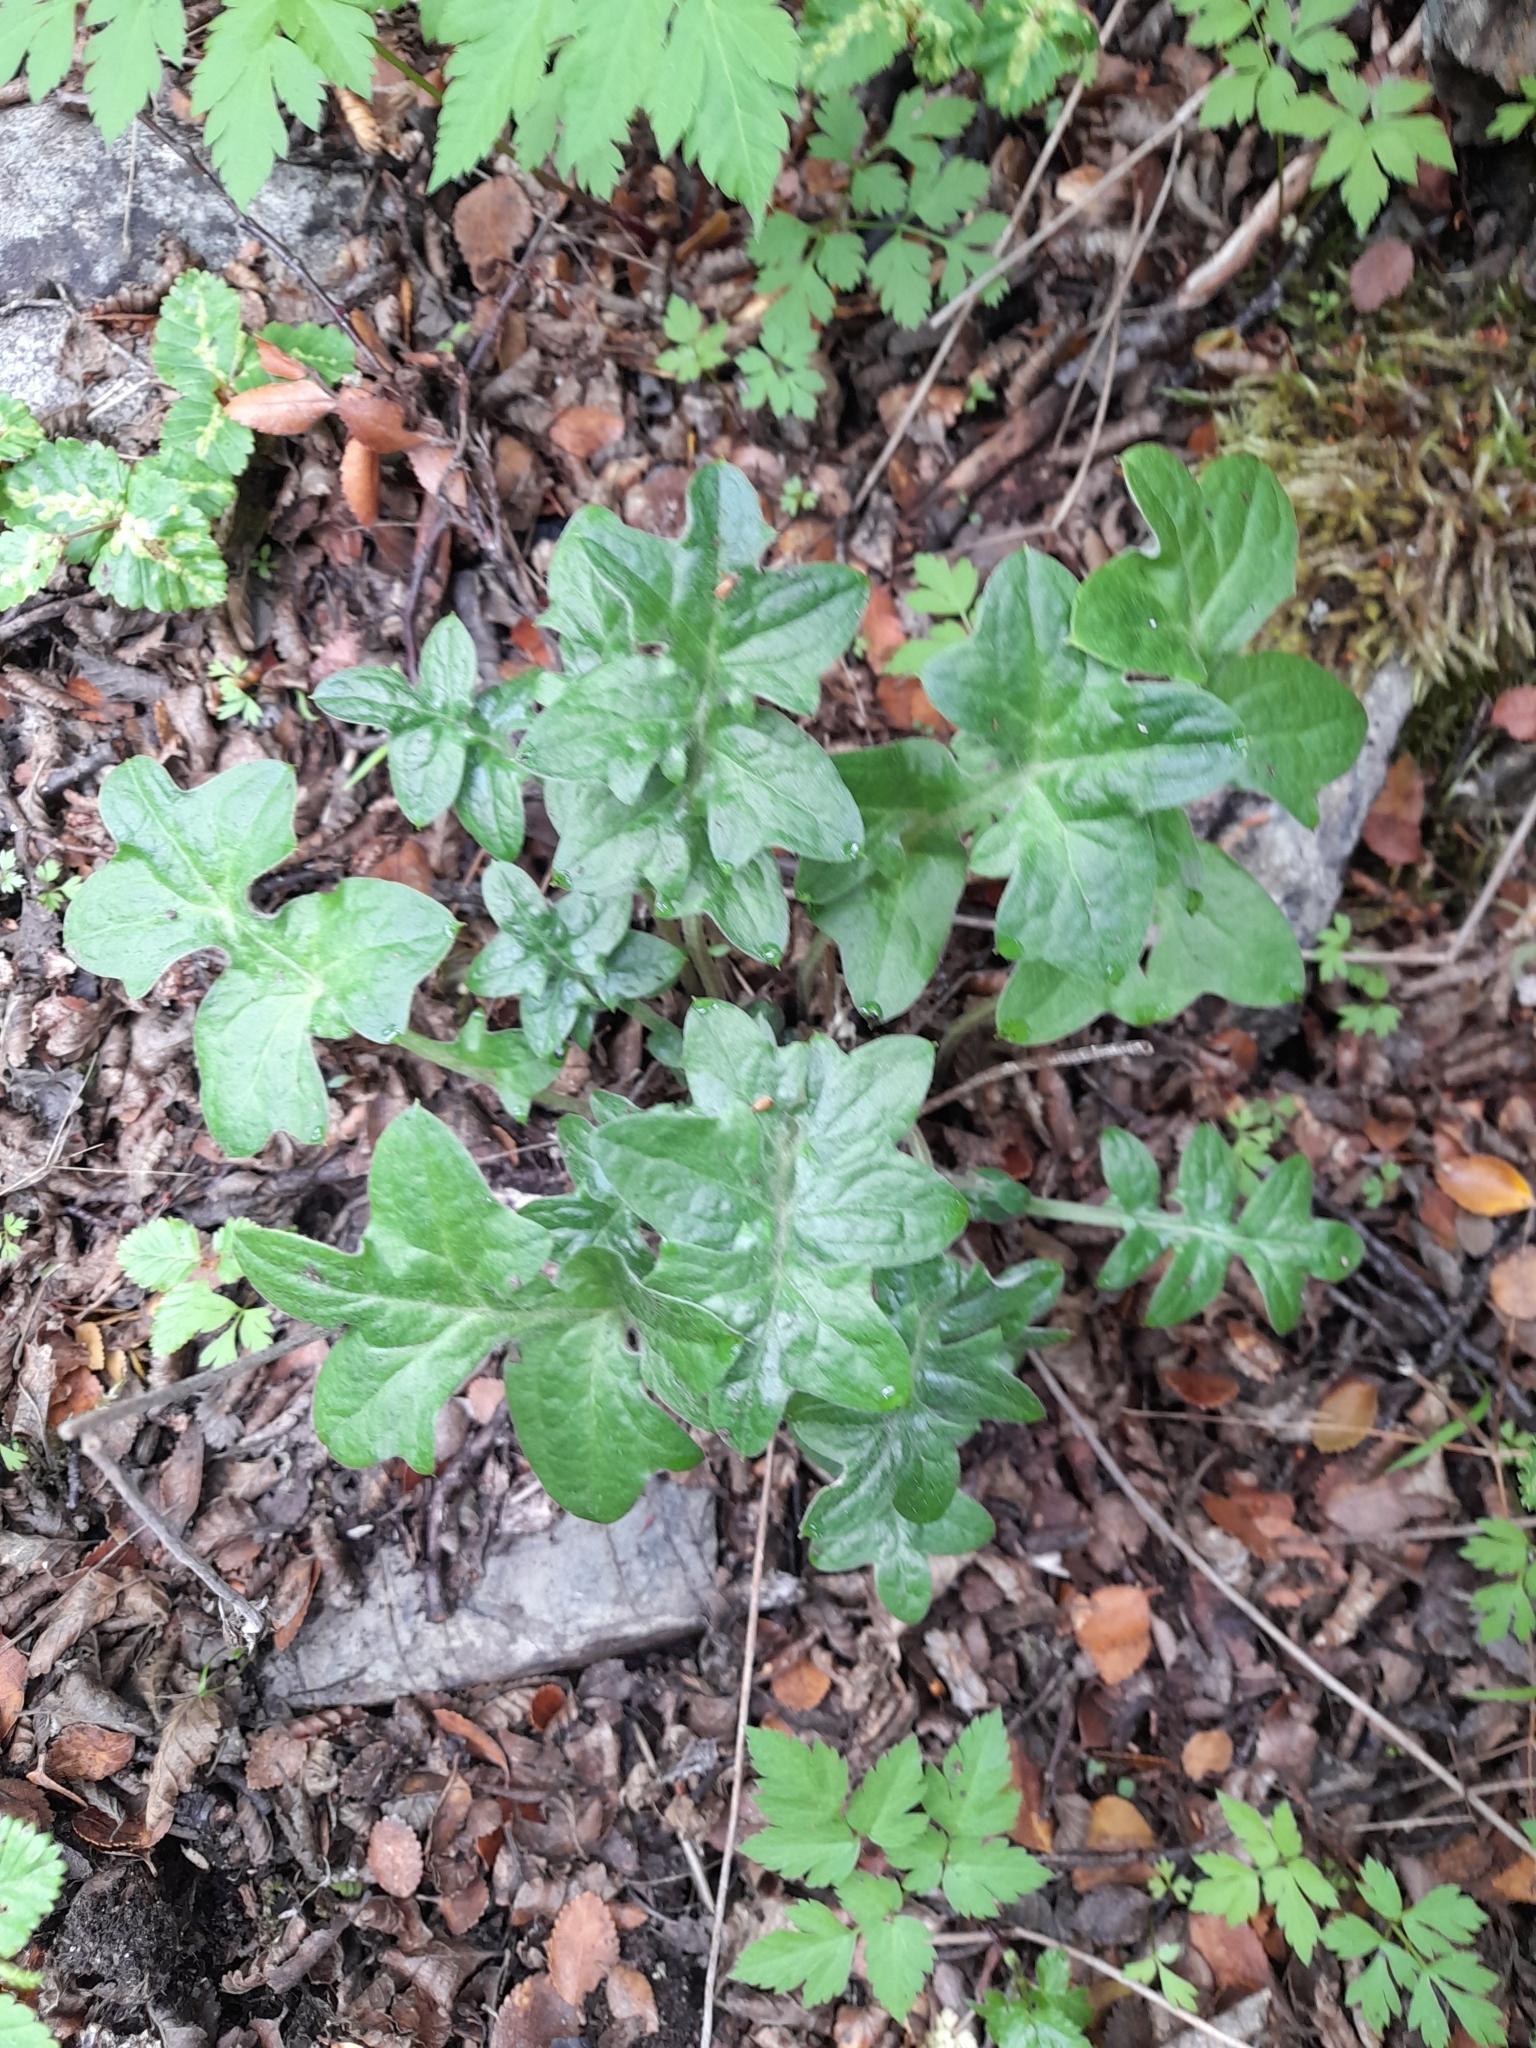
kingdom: Plantae
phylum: Tracheophyta
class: Magnoliopsida
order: Asterales
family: Asteraceae
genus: Macrachaenium
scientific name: Macrachaenium gracile
